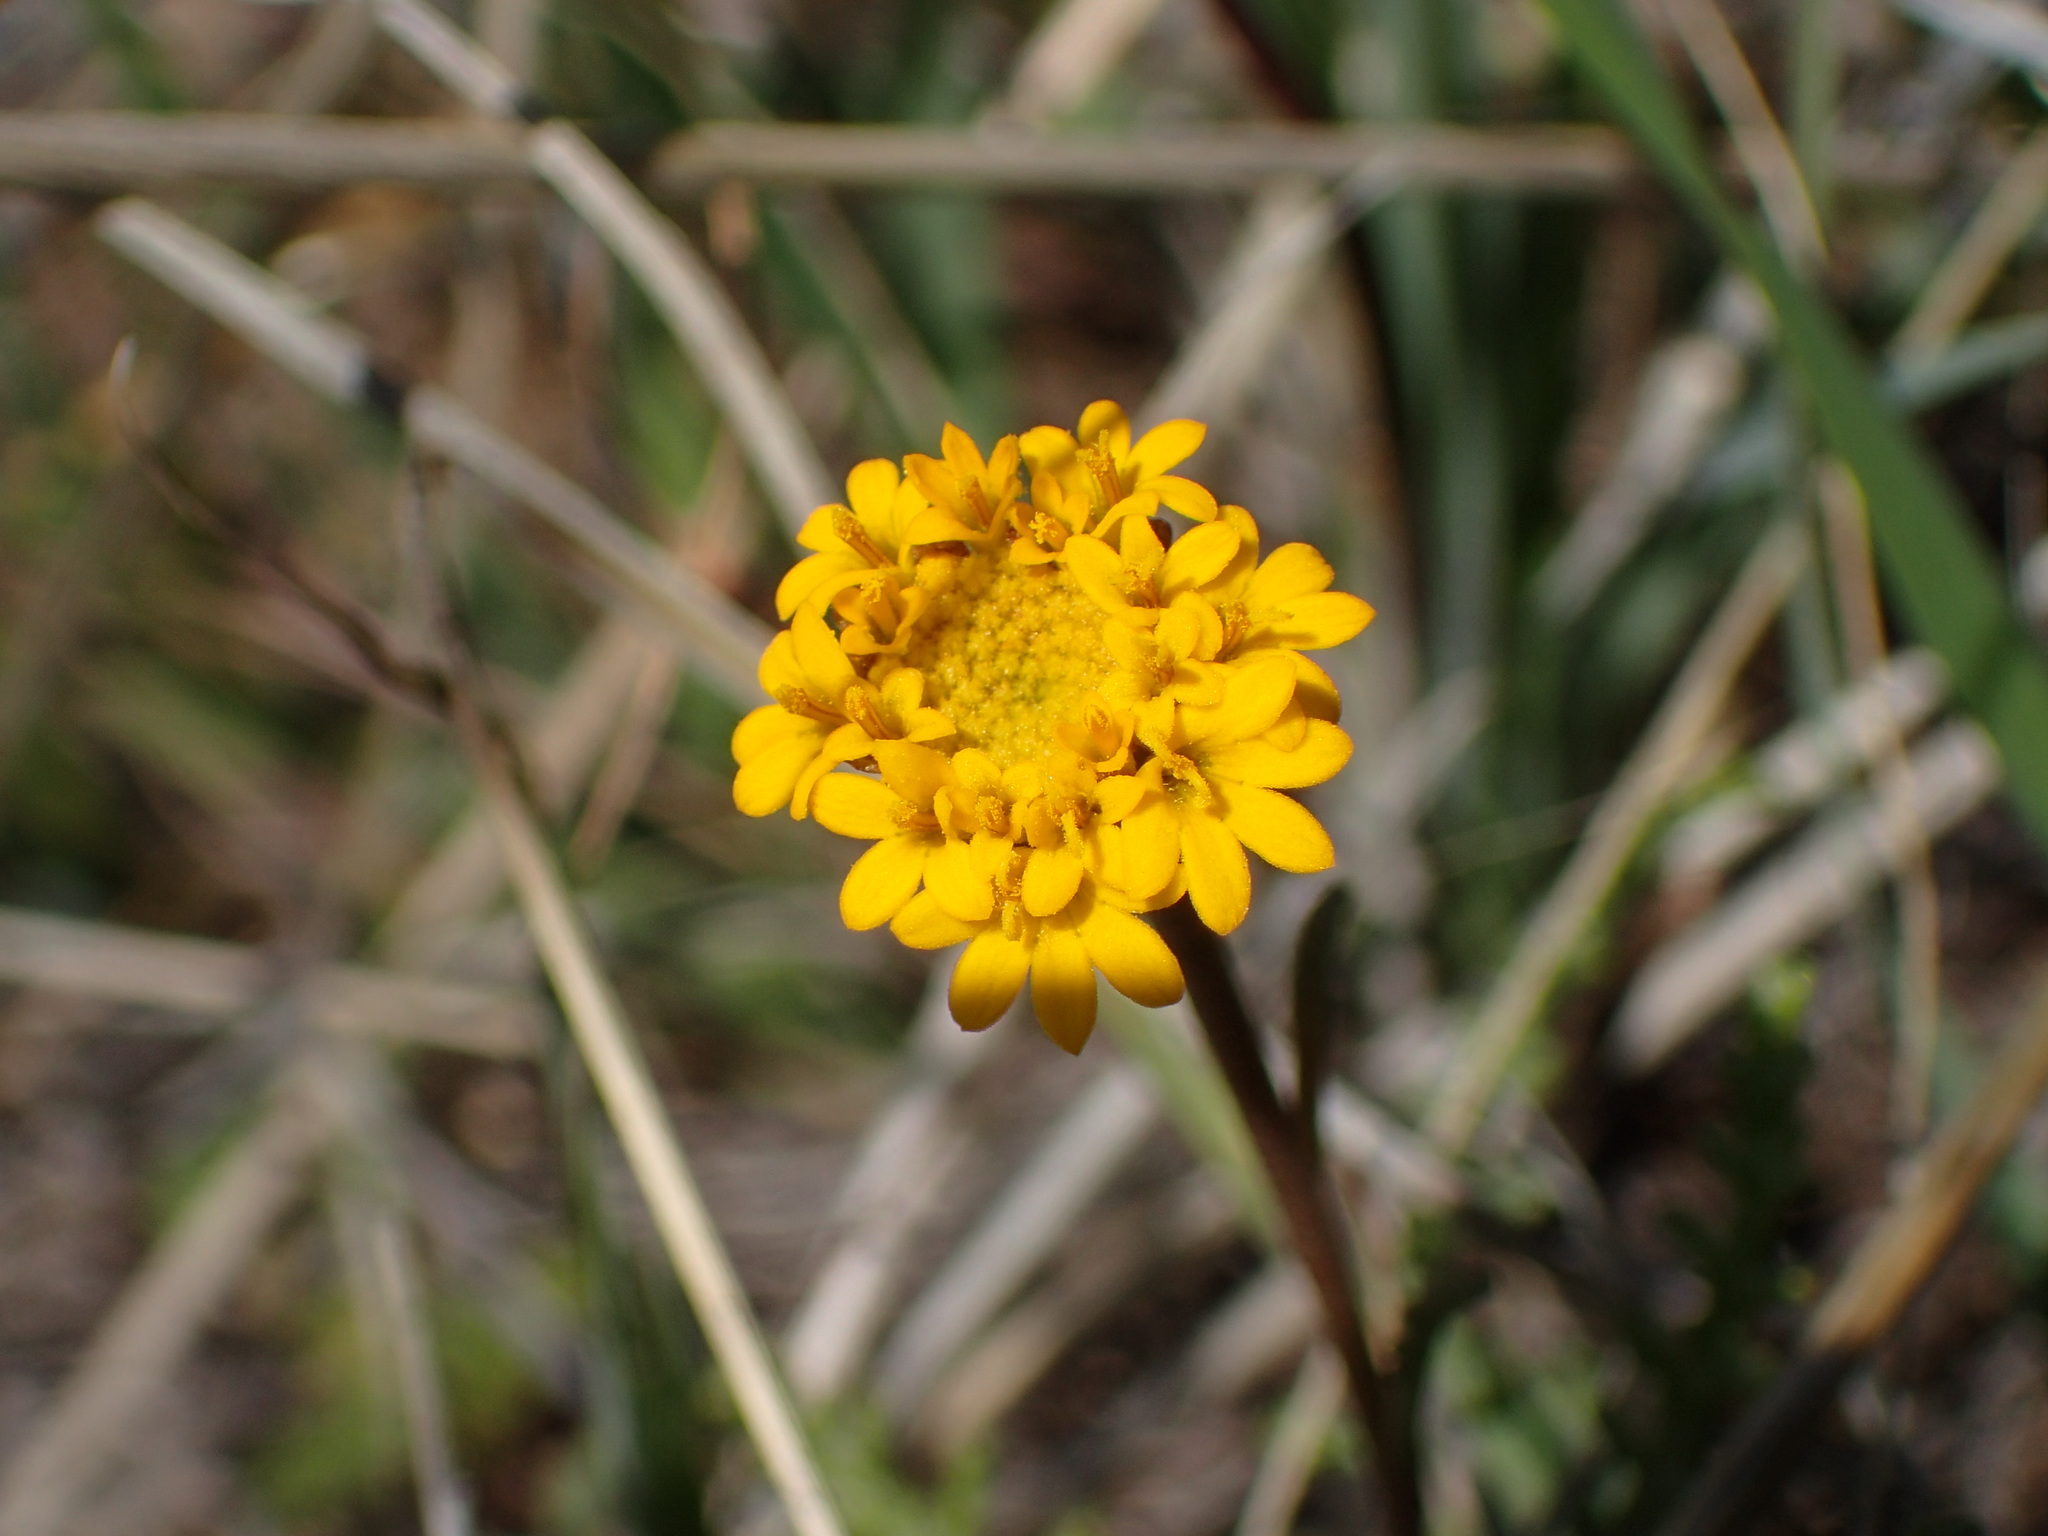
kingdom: Plantae
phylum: Tracheophyta
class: Magnoliopsida
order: Asterales
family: Asteraceae
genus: Chaenactis
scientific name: Chaenactis glabriuscula
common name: Yellow pincushion
